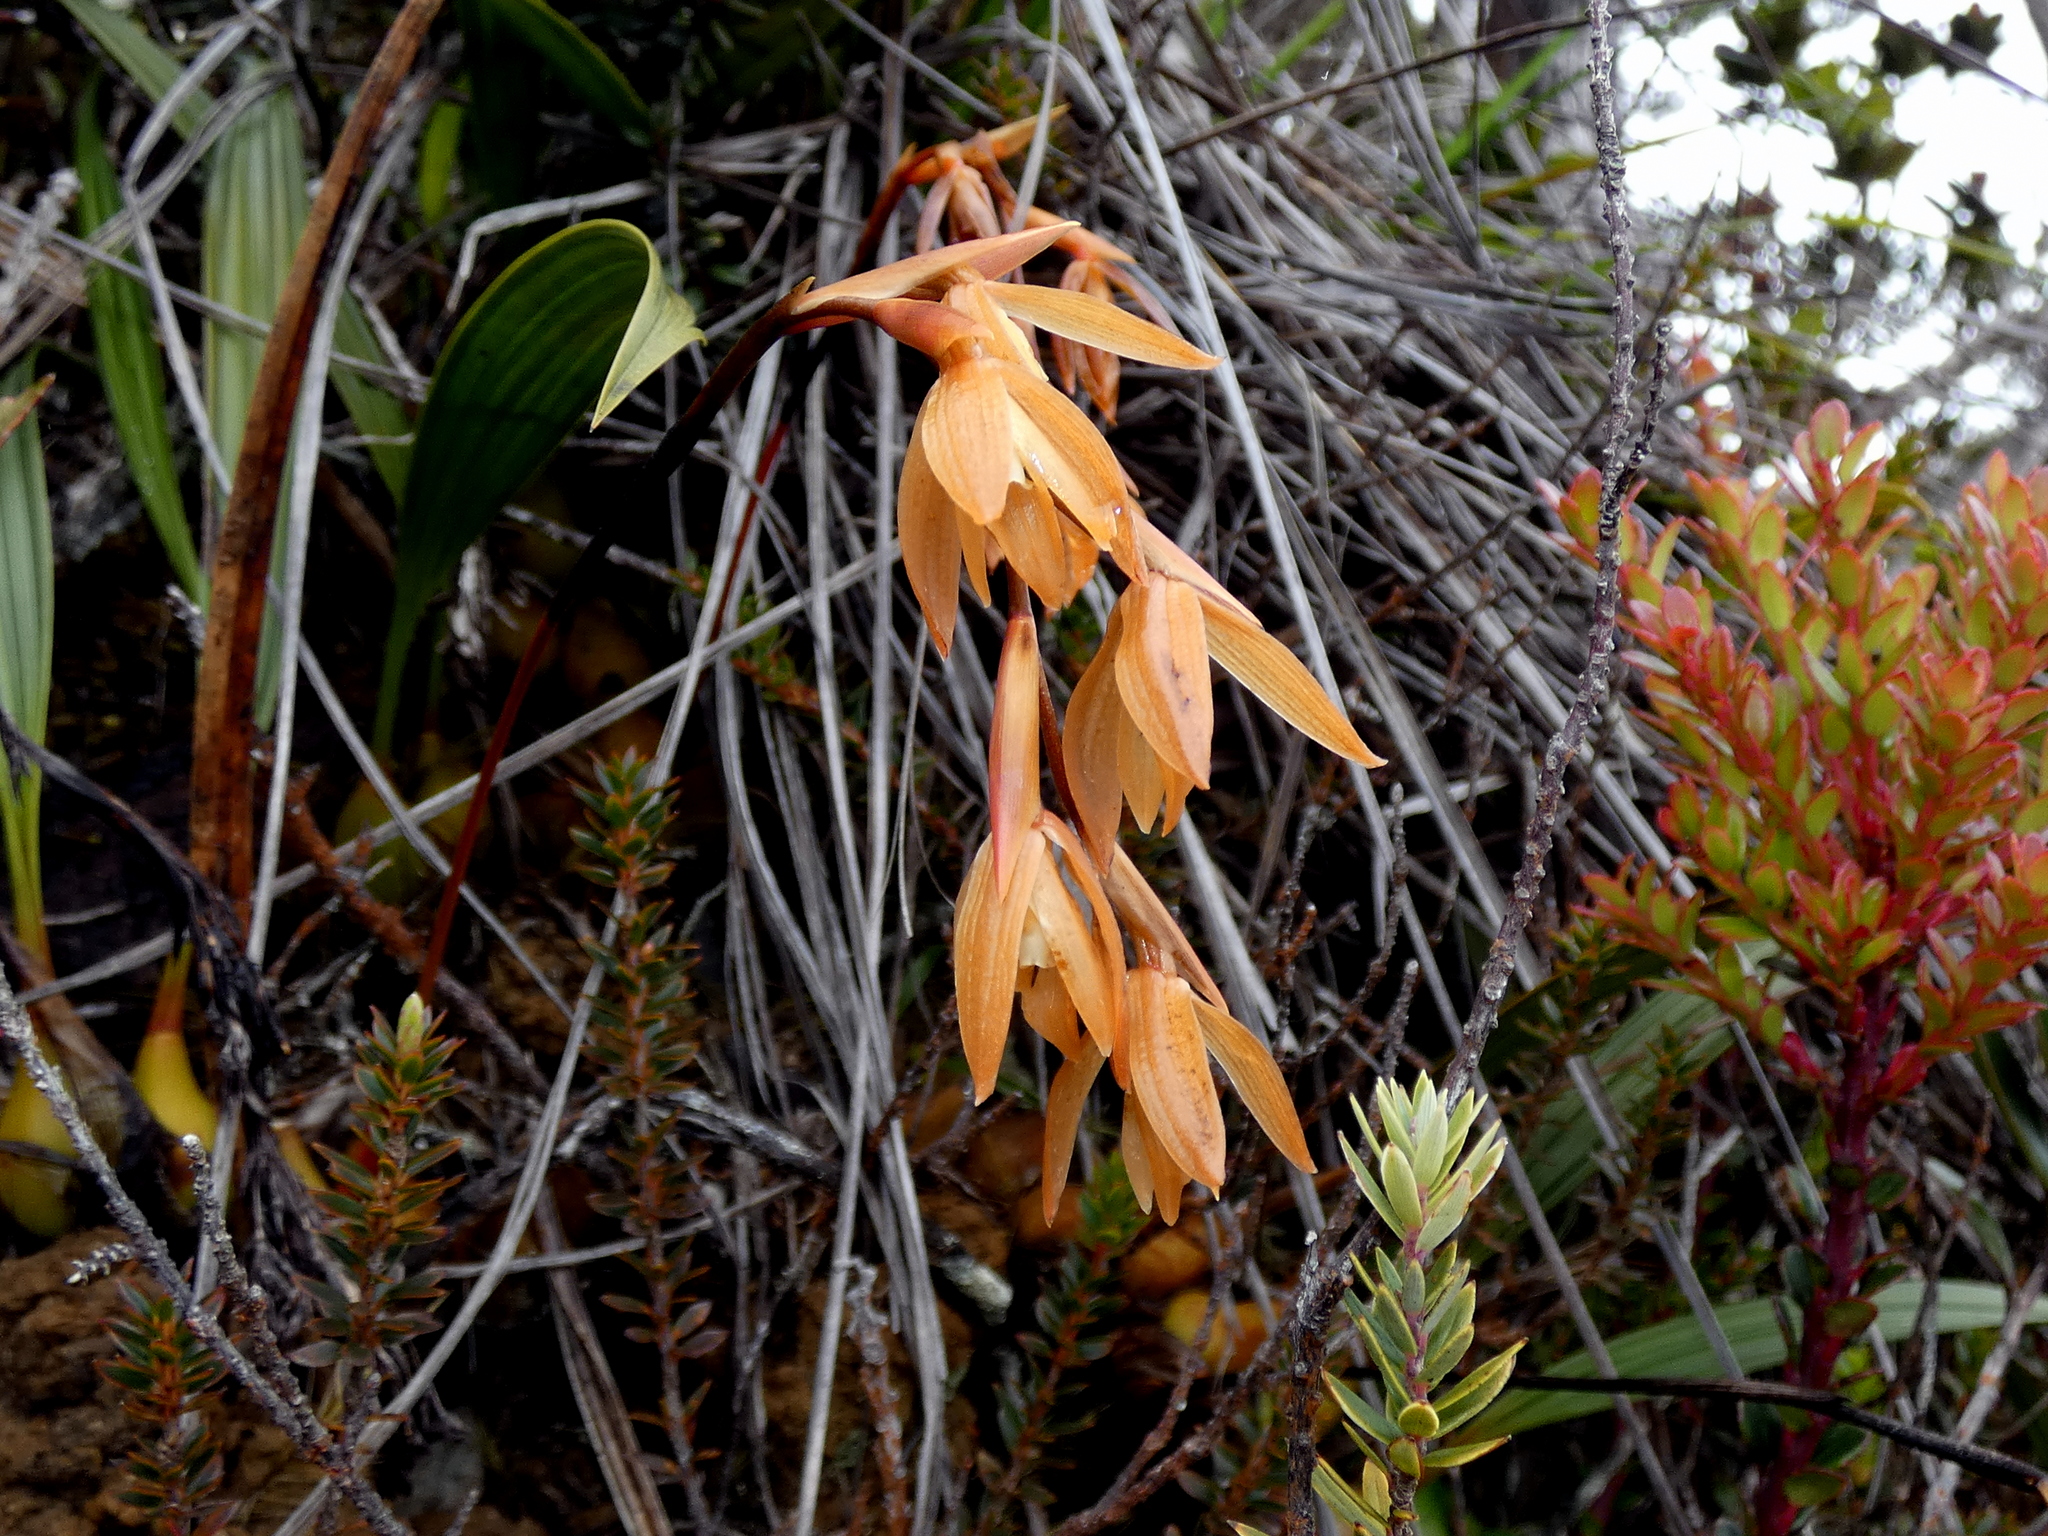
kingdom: Plantae
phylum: Tracheophyta
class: Liliopsida
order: Asparagales
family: Orchidaceae
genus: Coelogyne
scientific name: Coelogyne plicatissima
